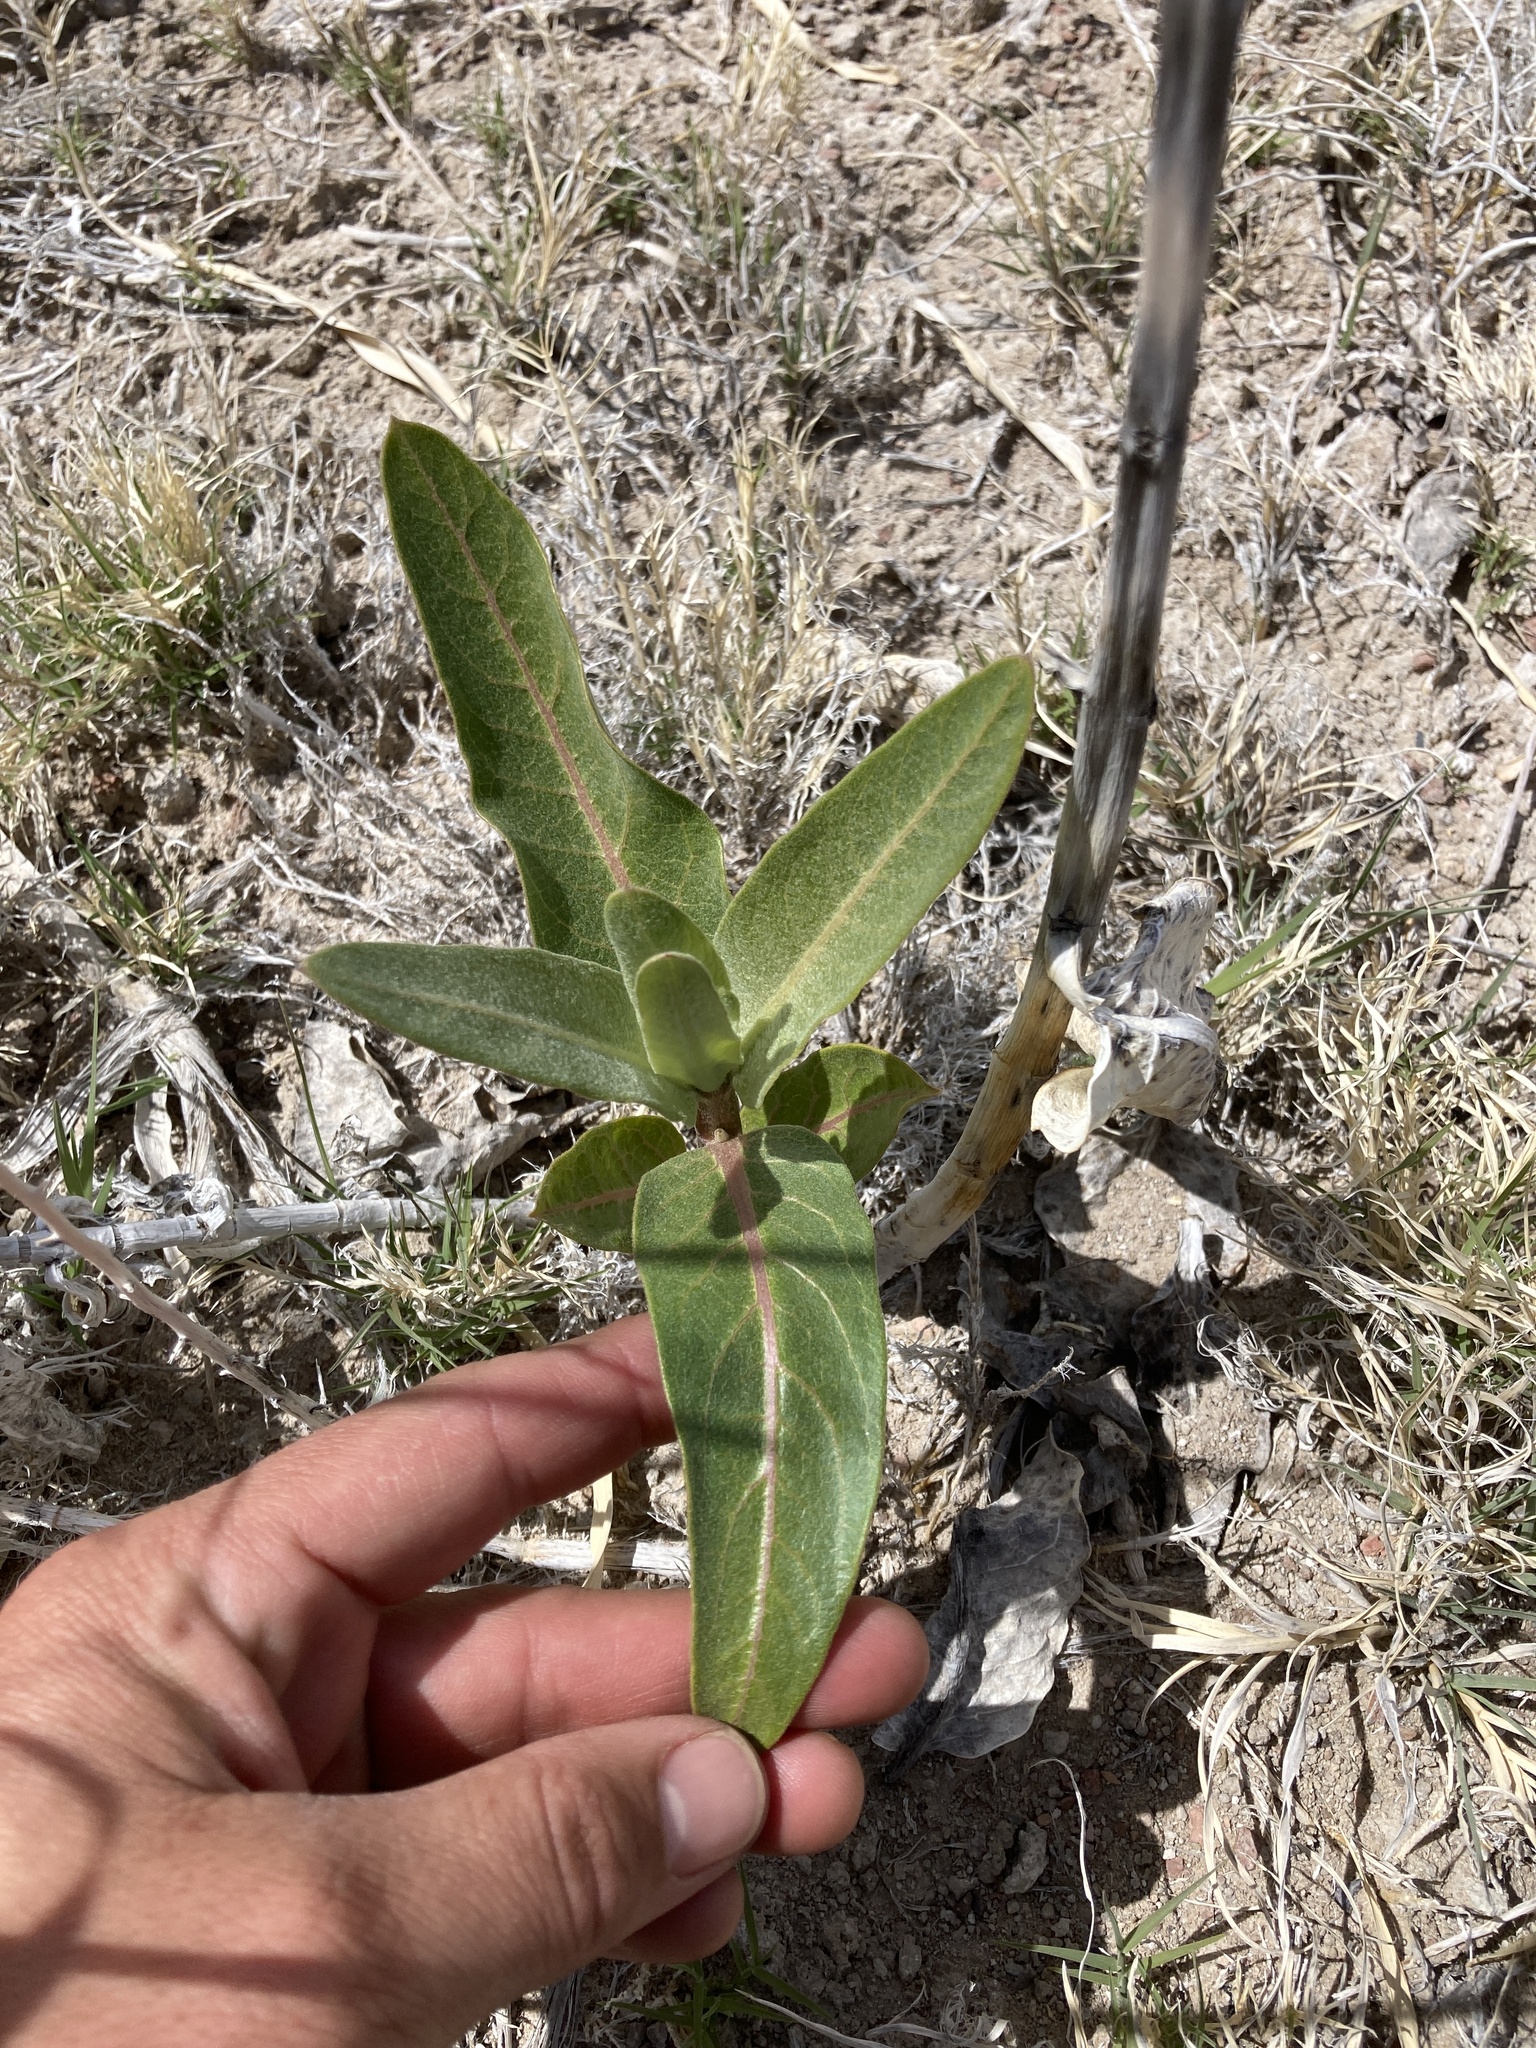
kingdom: Plantae
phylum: Tracheophyta
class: Magnoliopsida
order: Gentianales
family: Apocynaceae
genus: Asclepias
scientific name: Asclepias speciosa
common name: Showy milkweed
